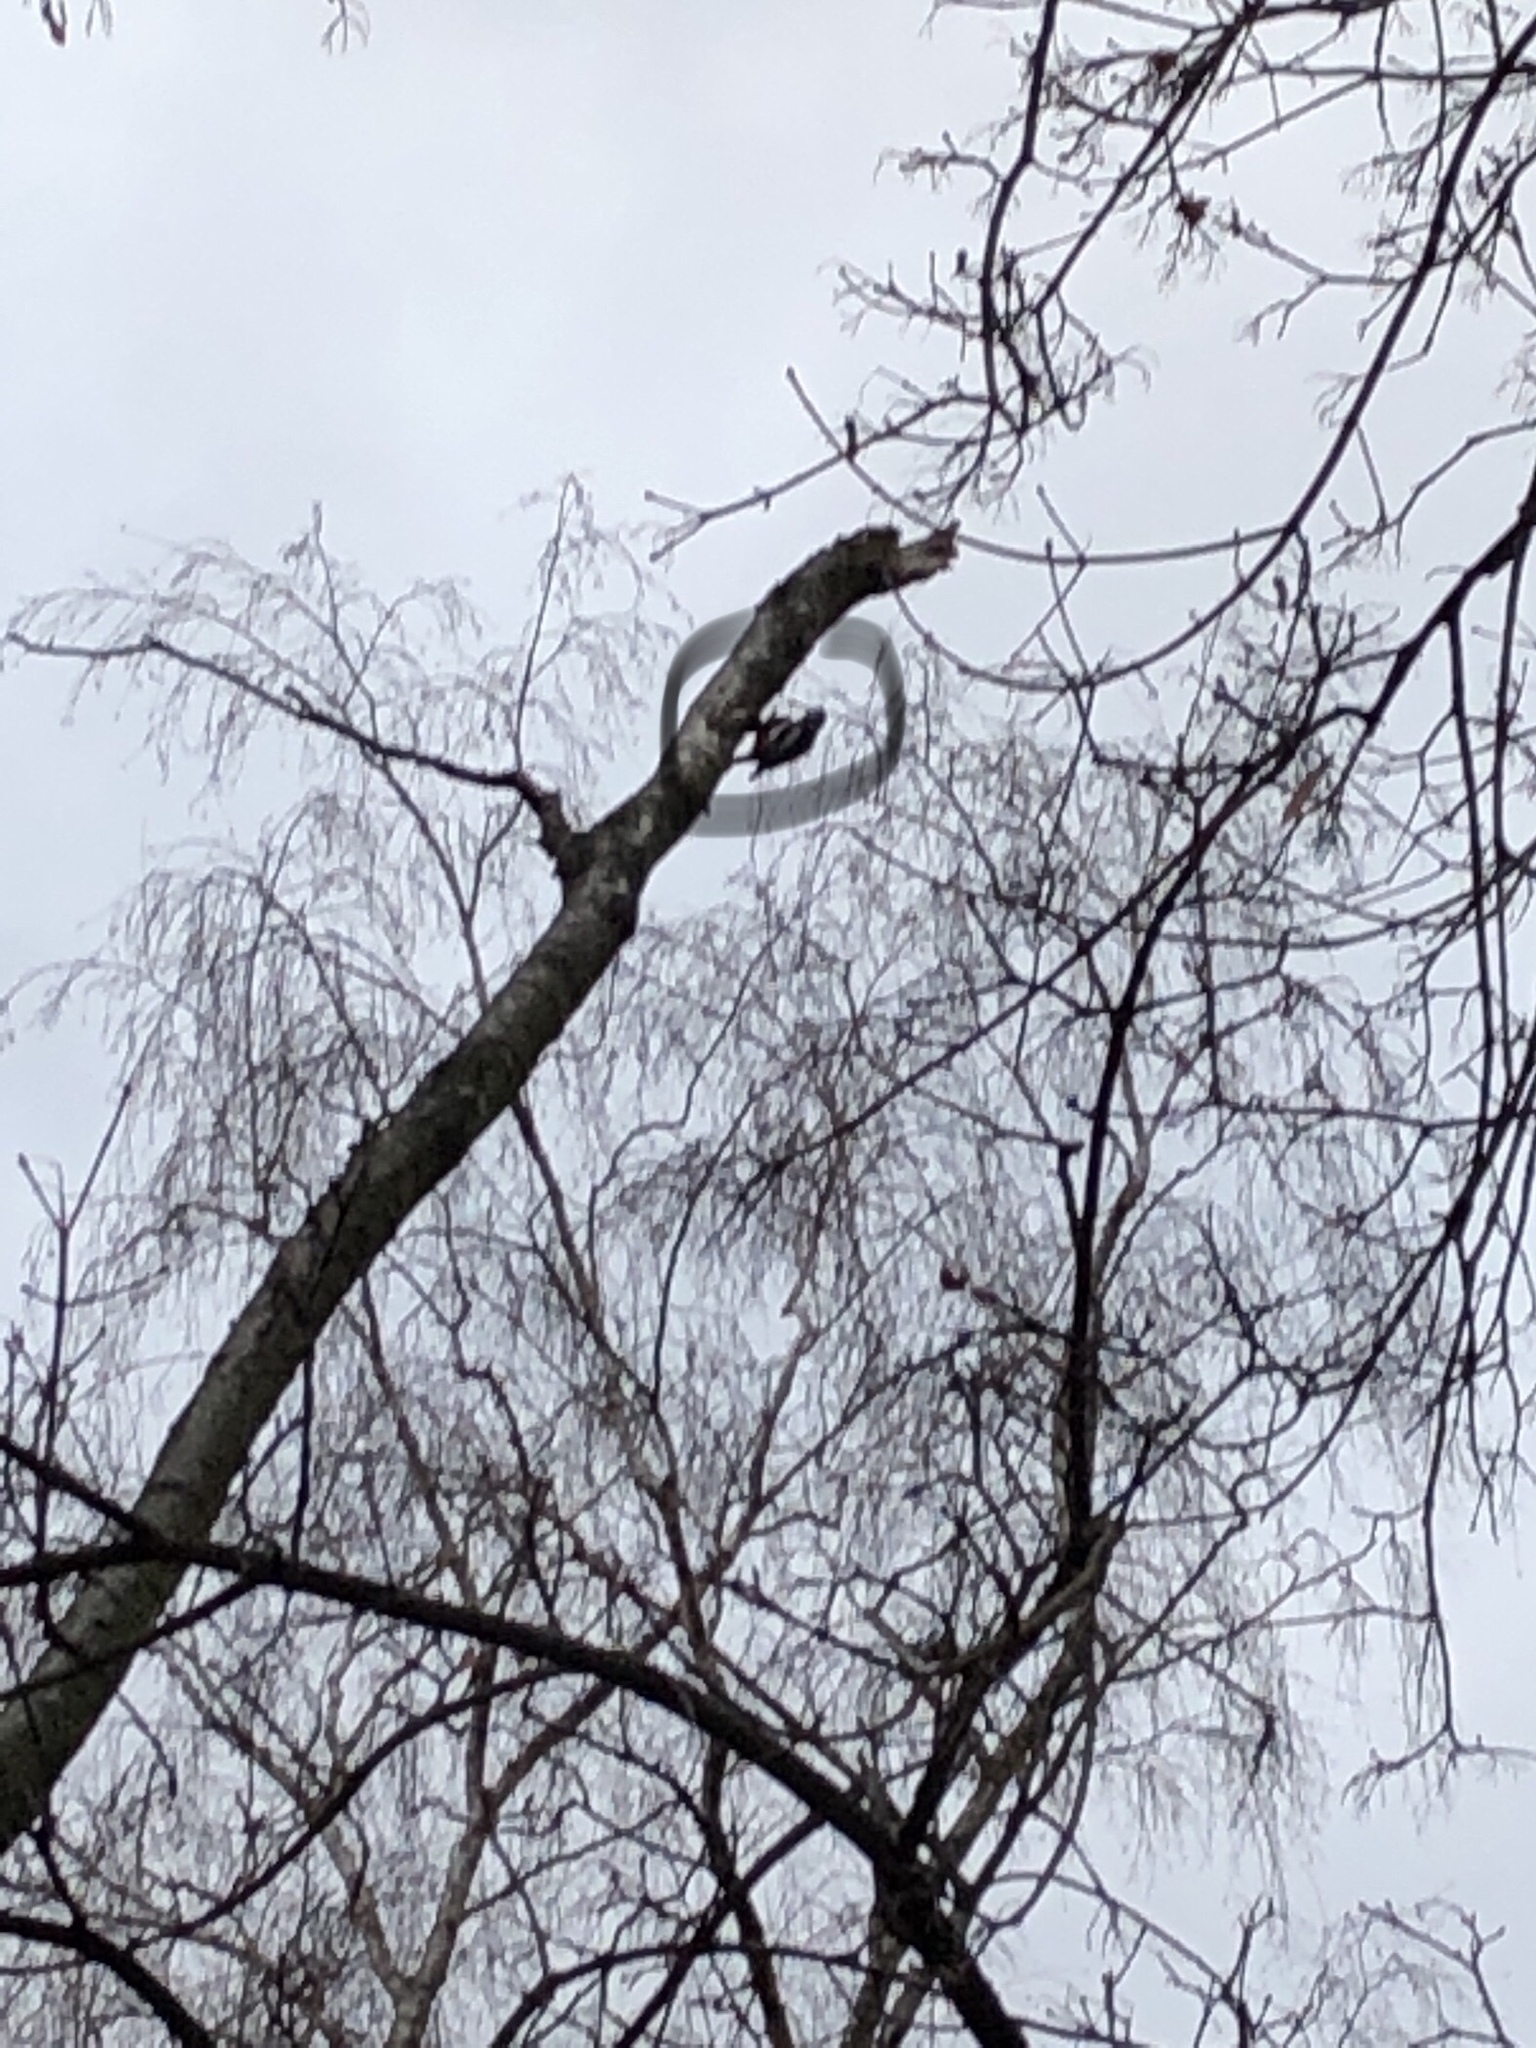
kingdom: Animalia
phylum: Chordata
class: Aves
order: Piciformes
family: Picidae
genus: Dendrocopos
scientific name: Dendrocopos major
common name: Great spotted woodpecker
